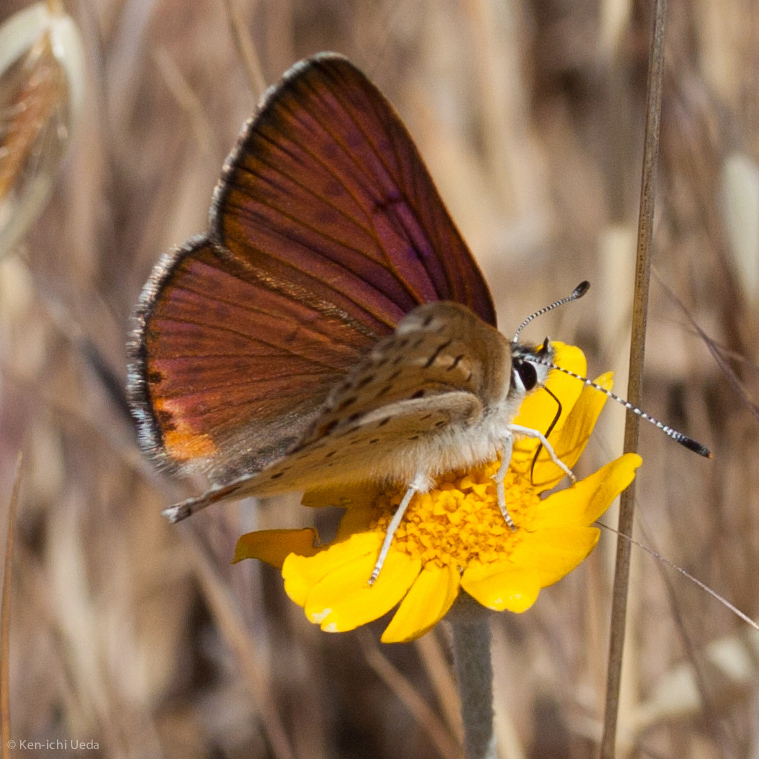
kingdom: Animalia
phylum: Arthropoda
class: Insecta
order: Lepidoptera
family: Lycaenidae
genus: Tharsalea
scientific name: Tharsalea gorgon
